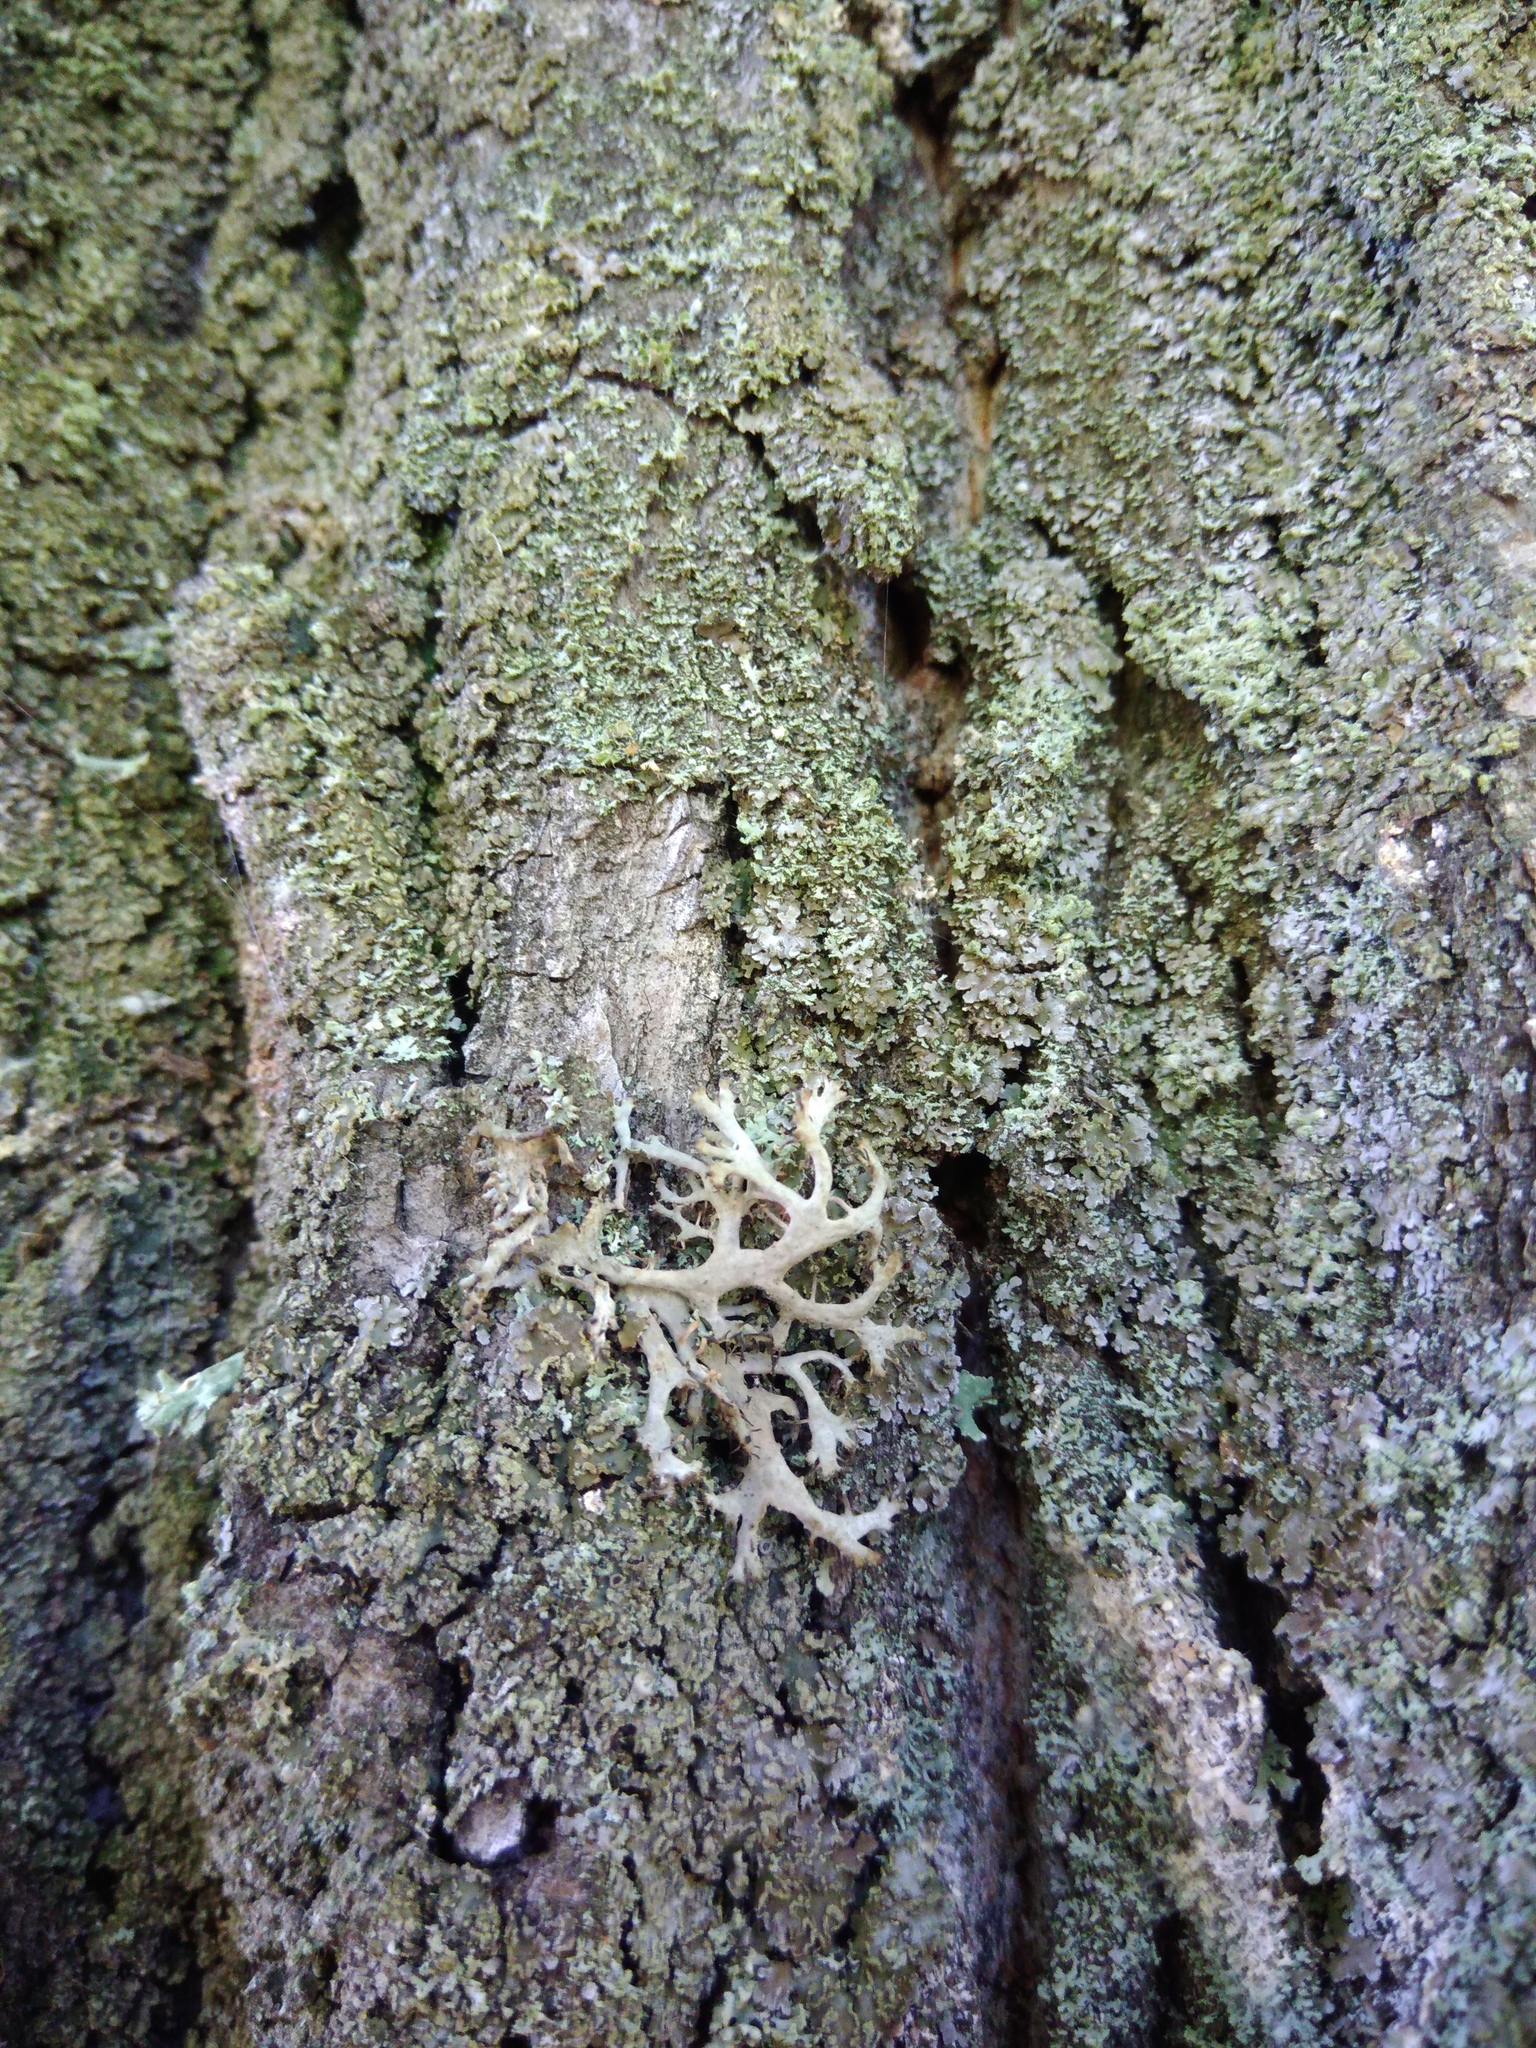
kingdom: Fungi
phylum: Ascomycota
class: Lecanoromycetes
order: Caliciales
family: Physciaceae
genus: Anaptychia
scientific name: Anaptychia ciliaris
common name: Great ciliated lichen
